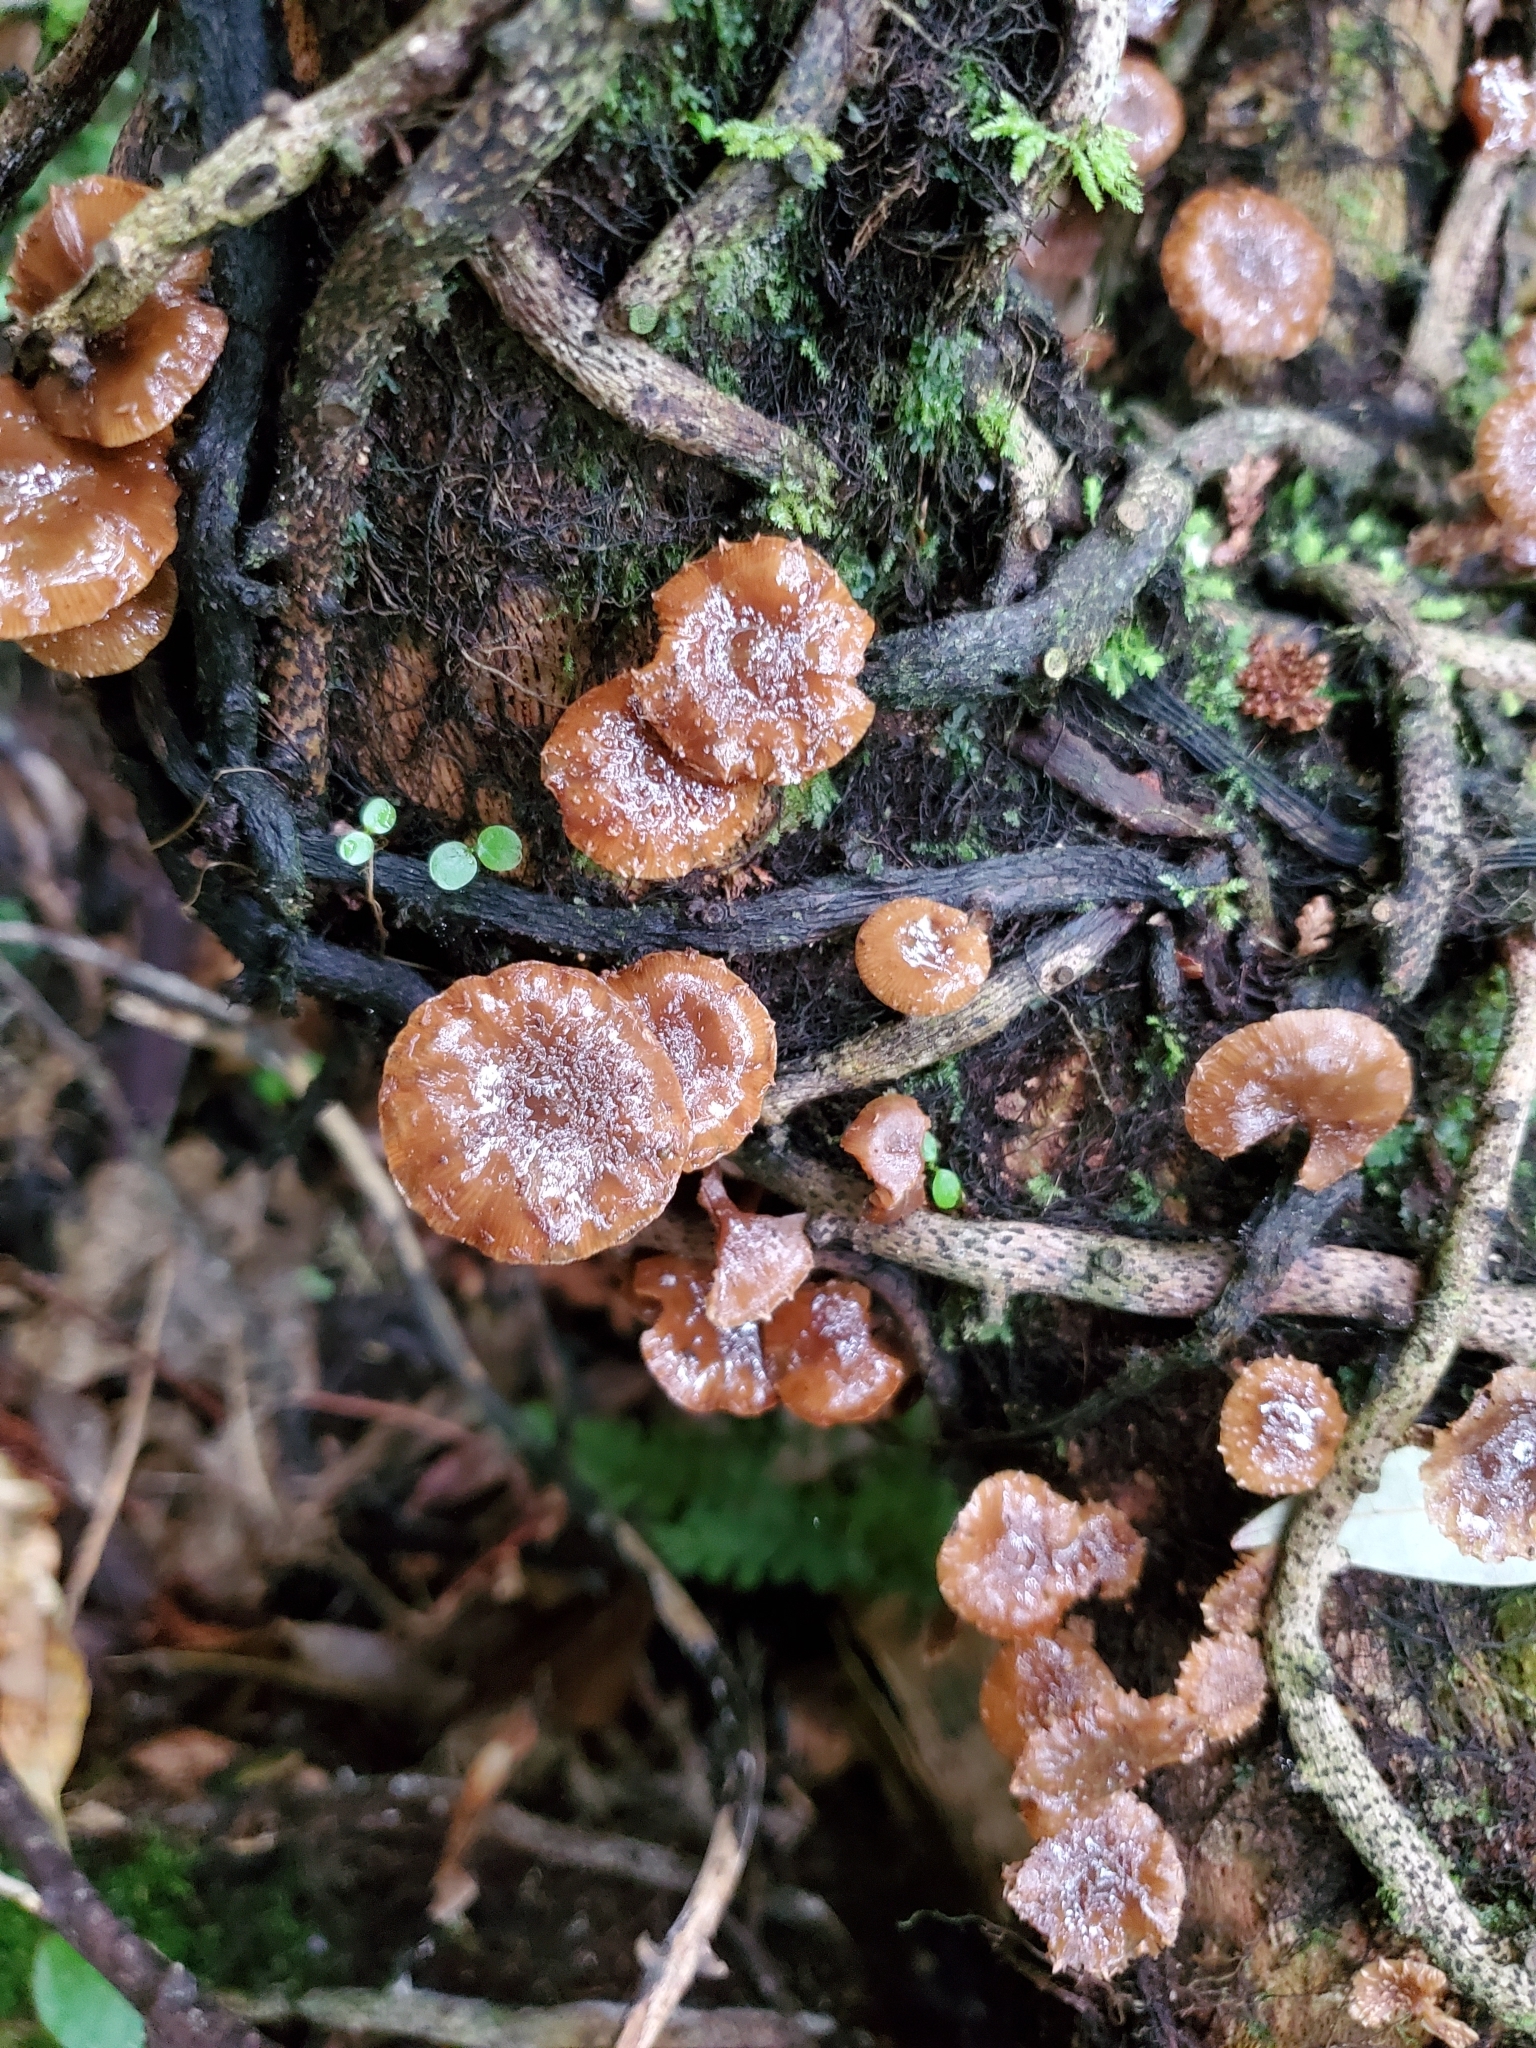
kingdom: Fungi
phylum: Basidiomycota
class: Agaricomycetes
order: Agaricales
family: Strophariaceae
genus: Pholiota
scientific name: Pholiota subflammans
